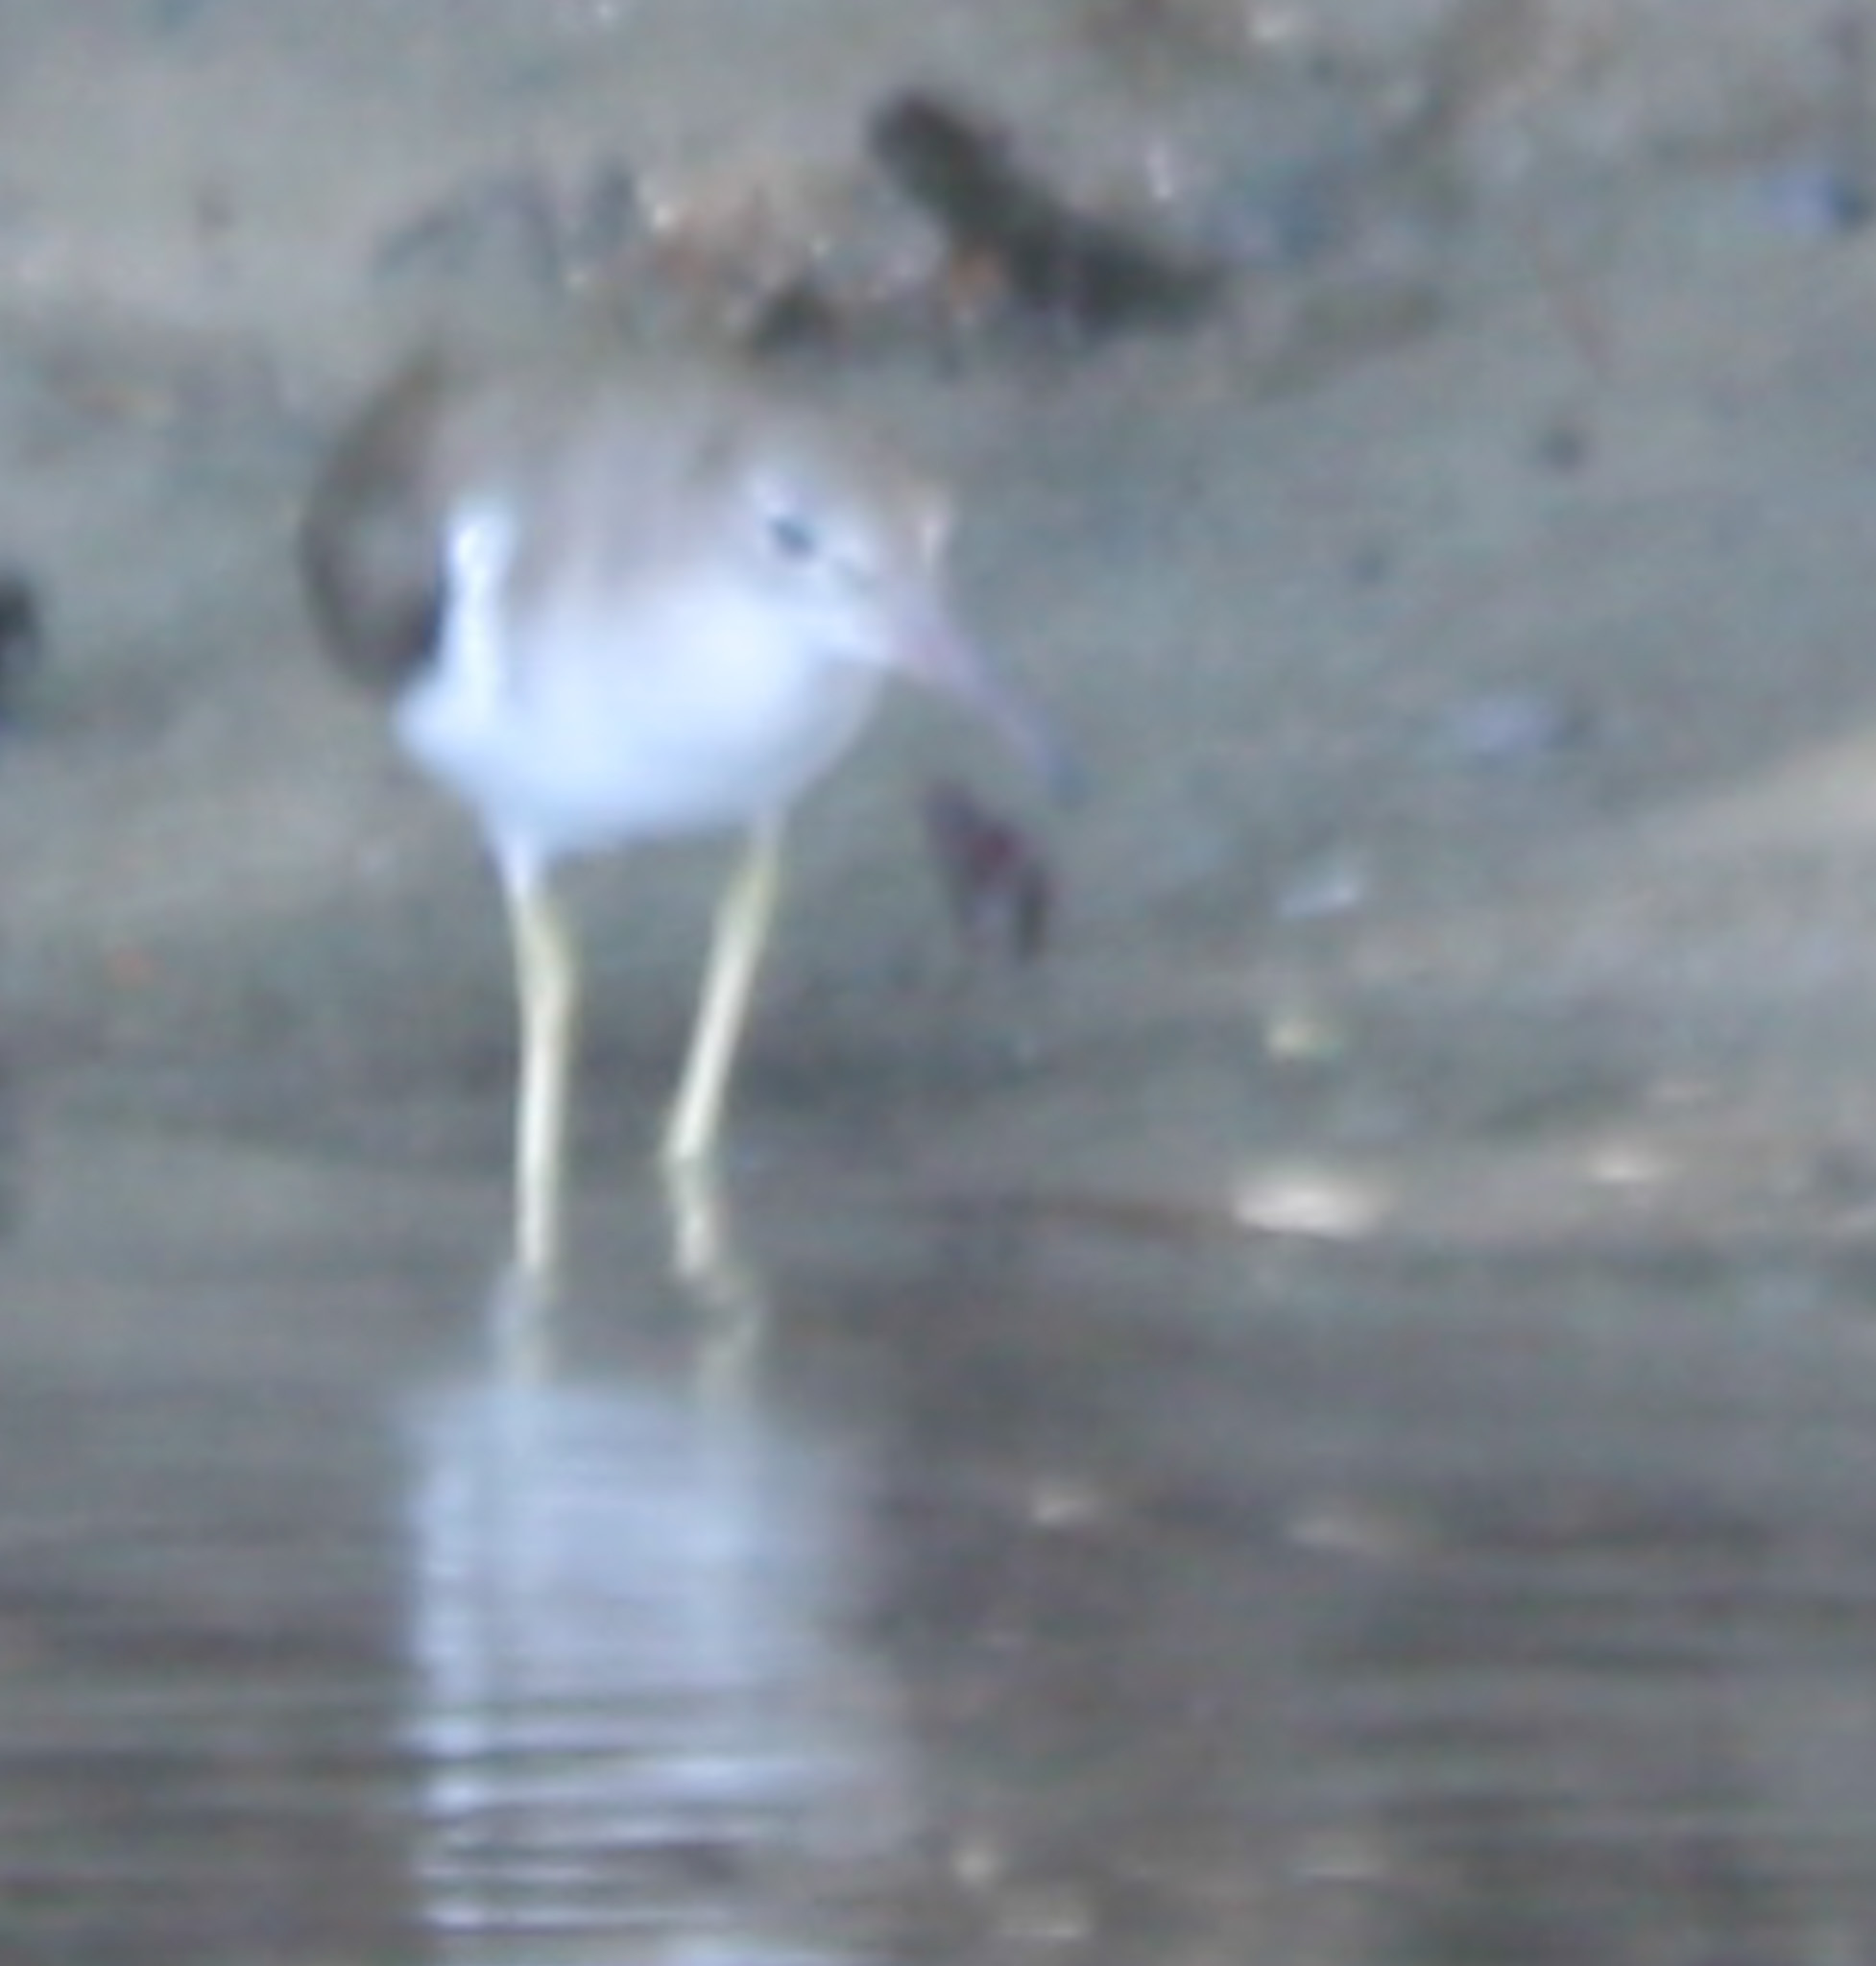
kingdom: Animalia
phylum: Chordata
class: Aves
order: Charadriiformes
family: Scolopacidae
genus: Actitis
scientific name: Actitis macularius
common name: Spotted sandpiper
